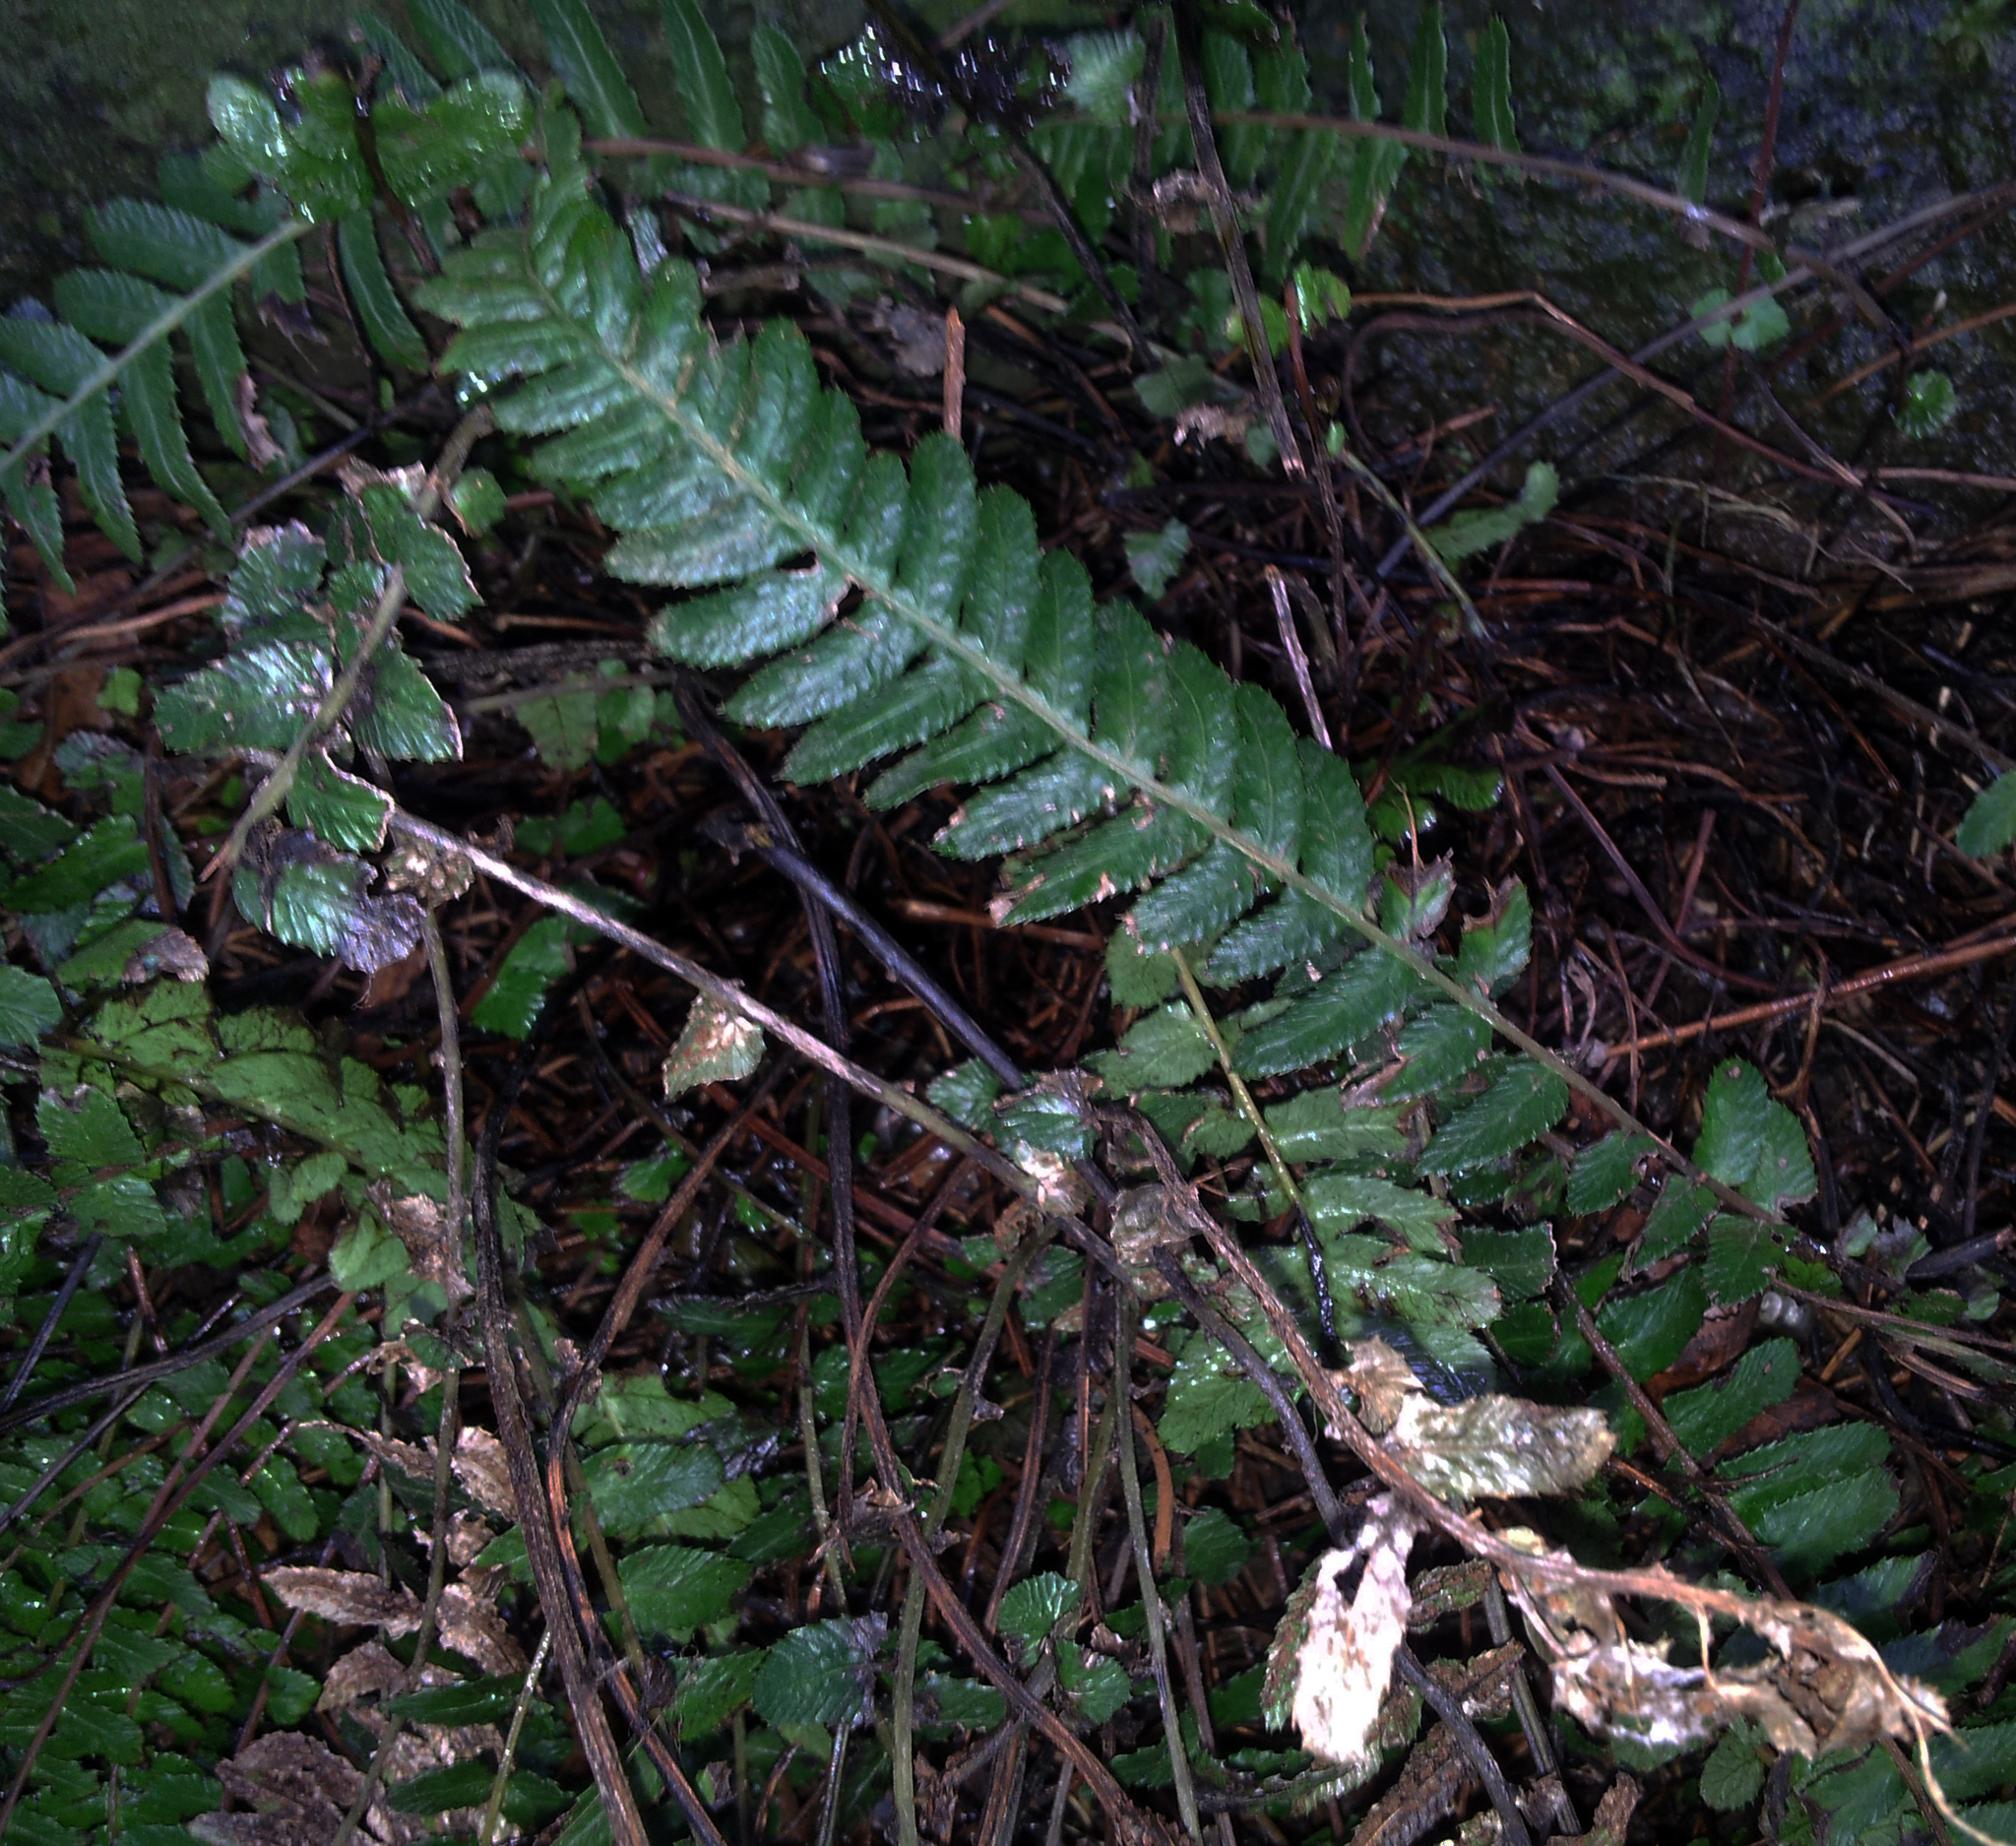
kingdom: Plantae
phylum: Tracheophyta
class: Polypodiopsida
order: Polypodiales
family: Blechnaceae
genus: Doodia
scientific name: Doodia australis
